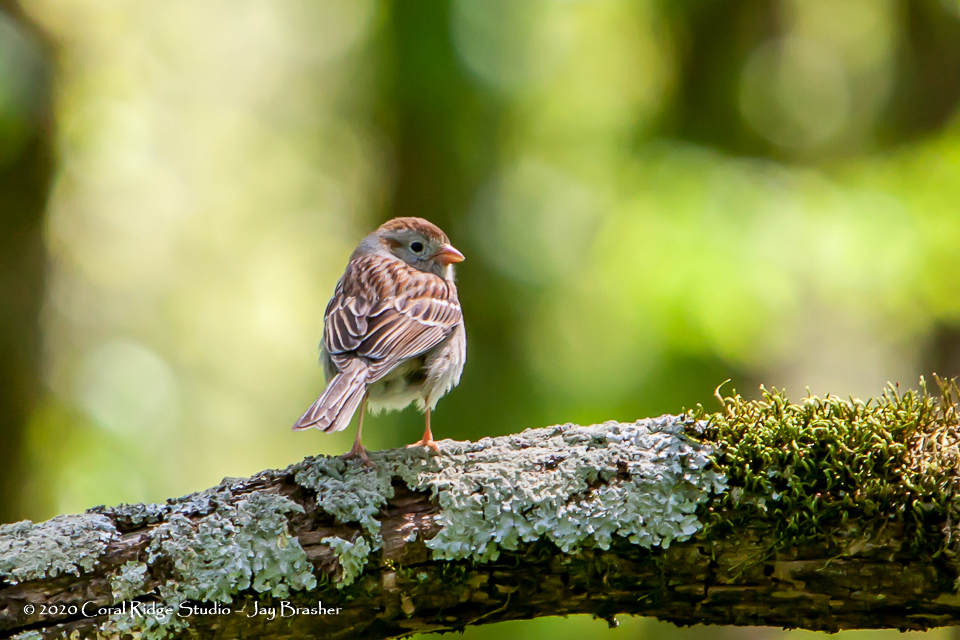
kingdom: Animalia
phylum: Chordata
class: Aves
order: Passeriformes
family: Passerellidae
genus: Spizella
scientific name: Spizella pusilla
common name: Field sparrow
